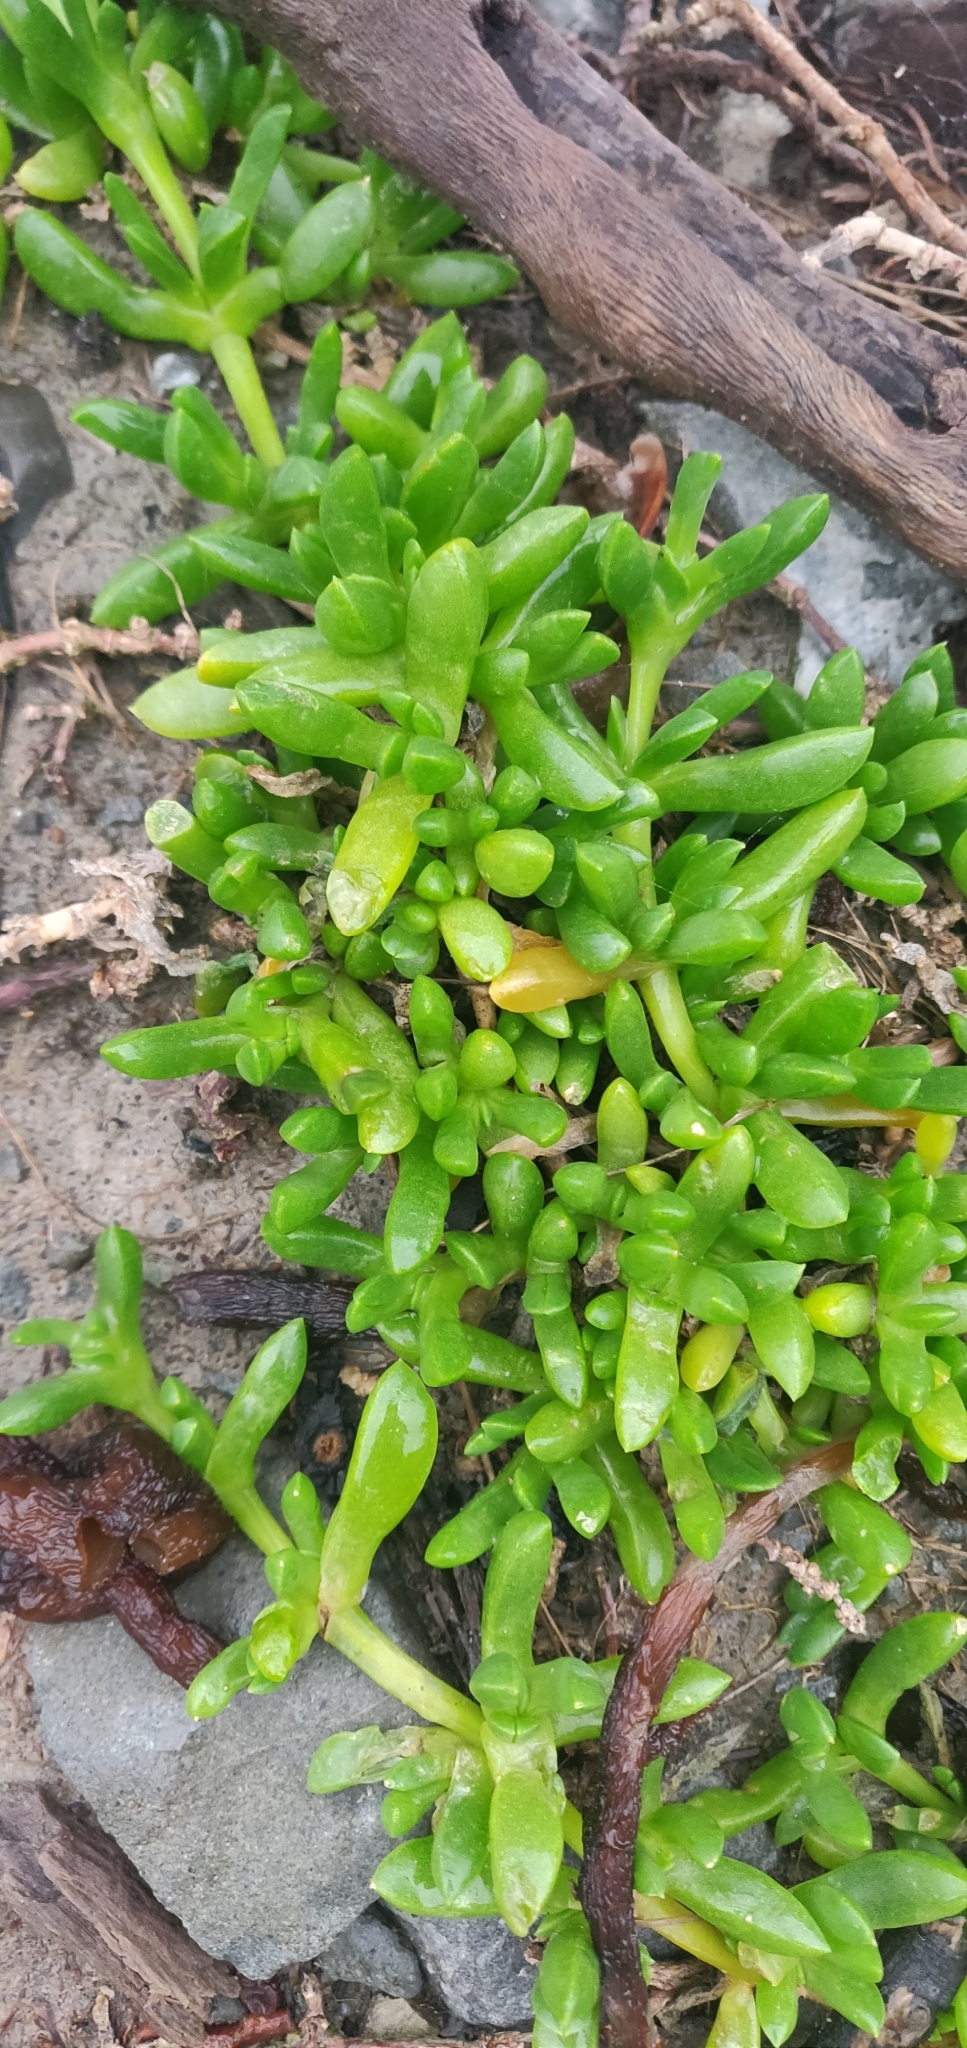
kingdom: Plantae
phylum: Tracheophyta
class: Magnoliopsida
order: Caryophyllales
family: Aizoaceae
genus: Disphyma
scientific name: Disphyma australe
